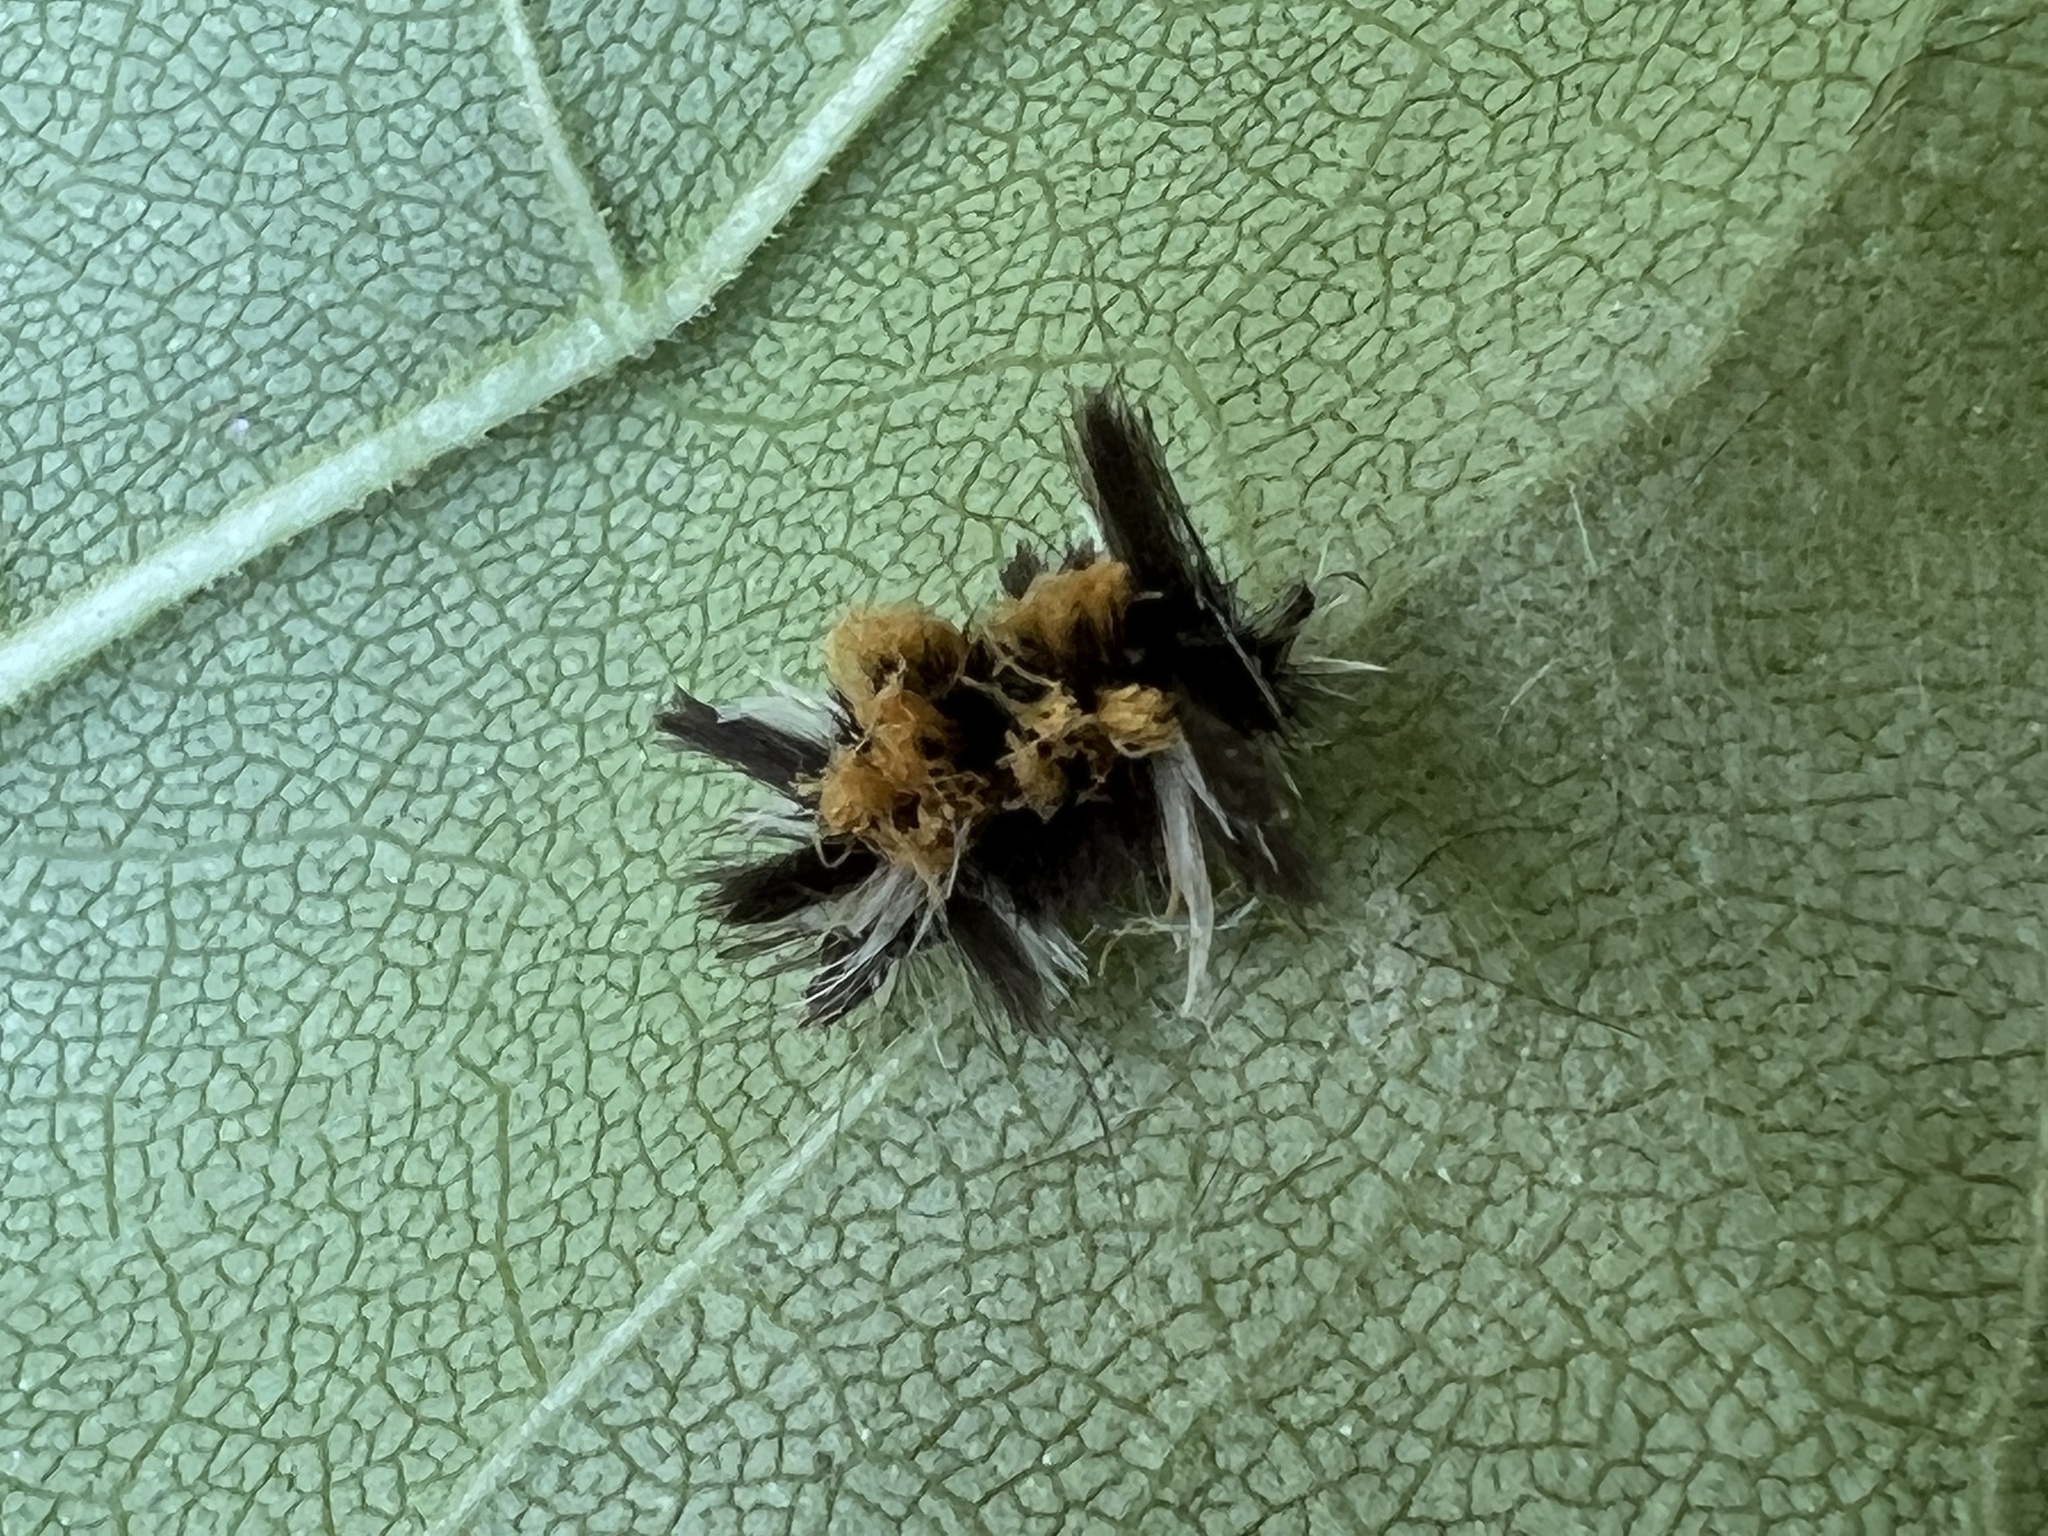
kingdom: Animalia
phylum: Arthropoda
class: Insecta
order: Lepidoptera
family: Erebidae
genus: Euchaetes
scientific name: Euchaetes egle
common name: Milkweed tussock moth
